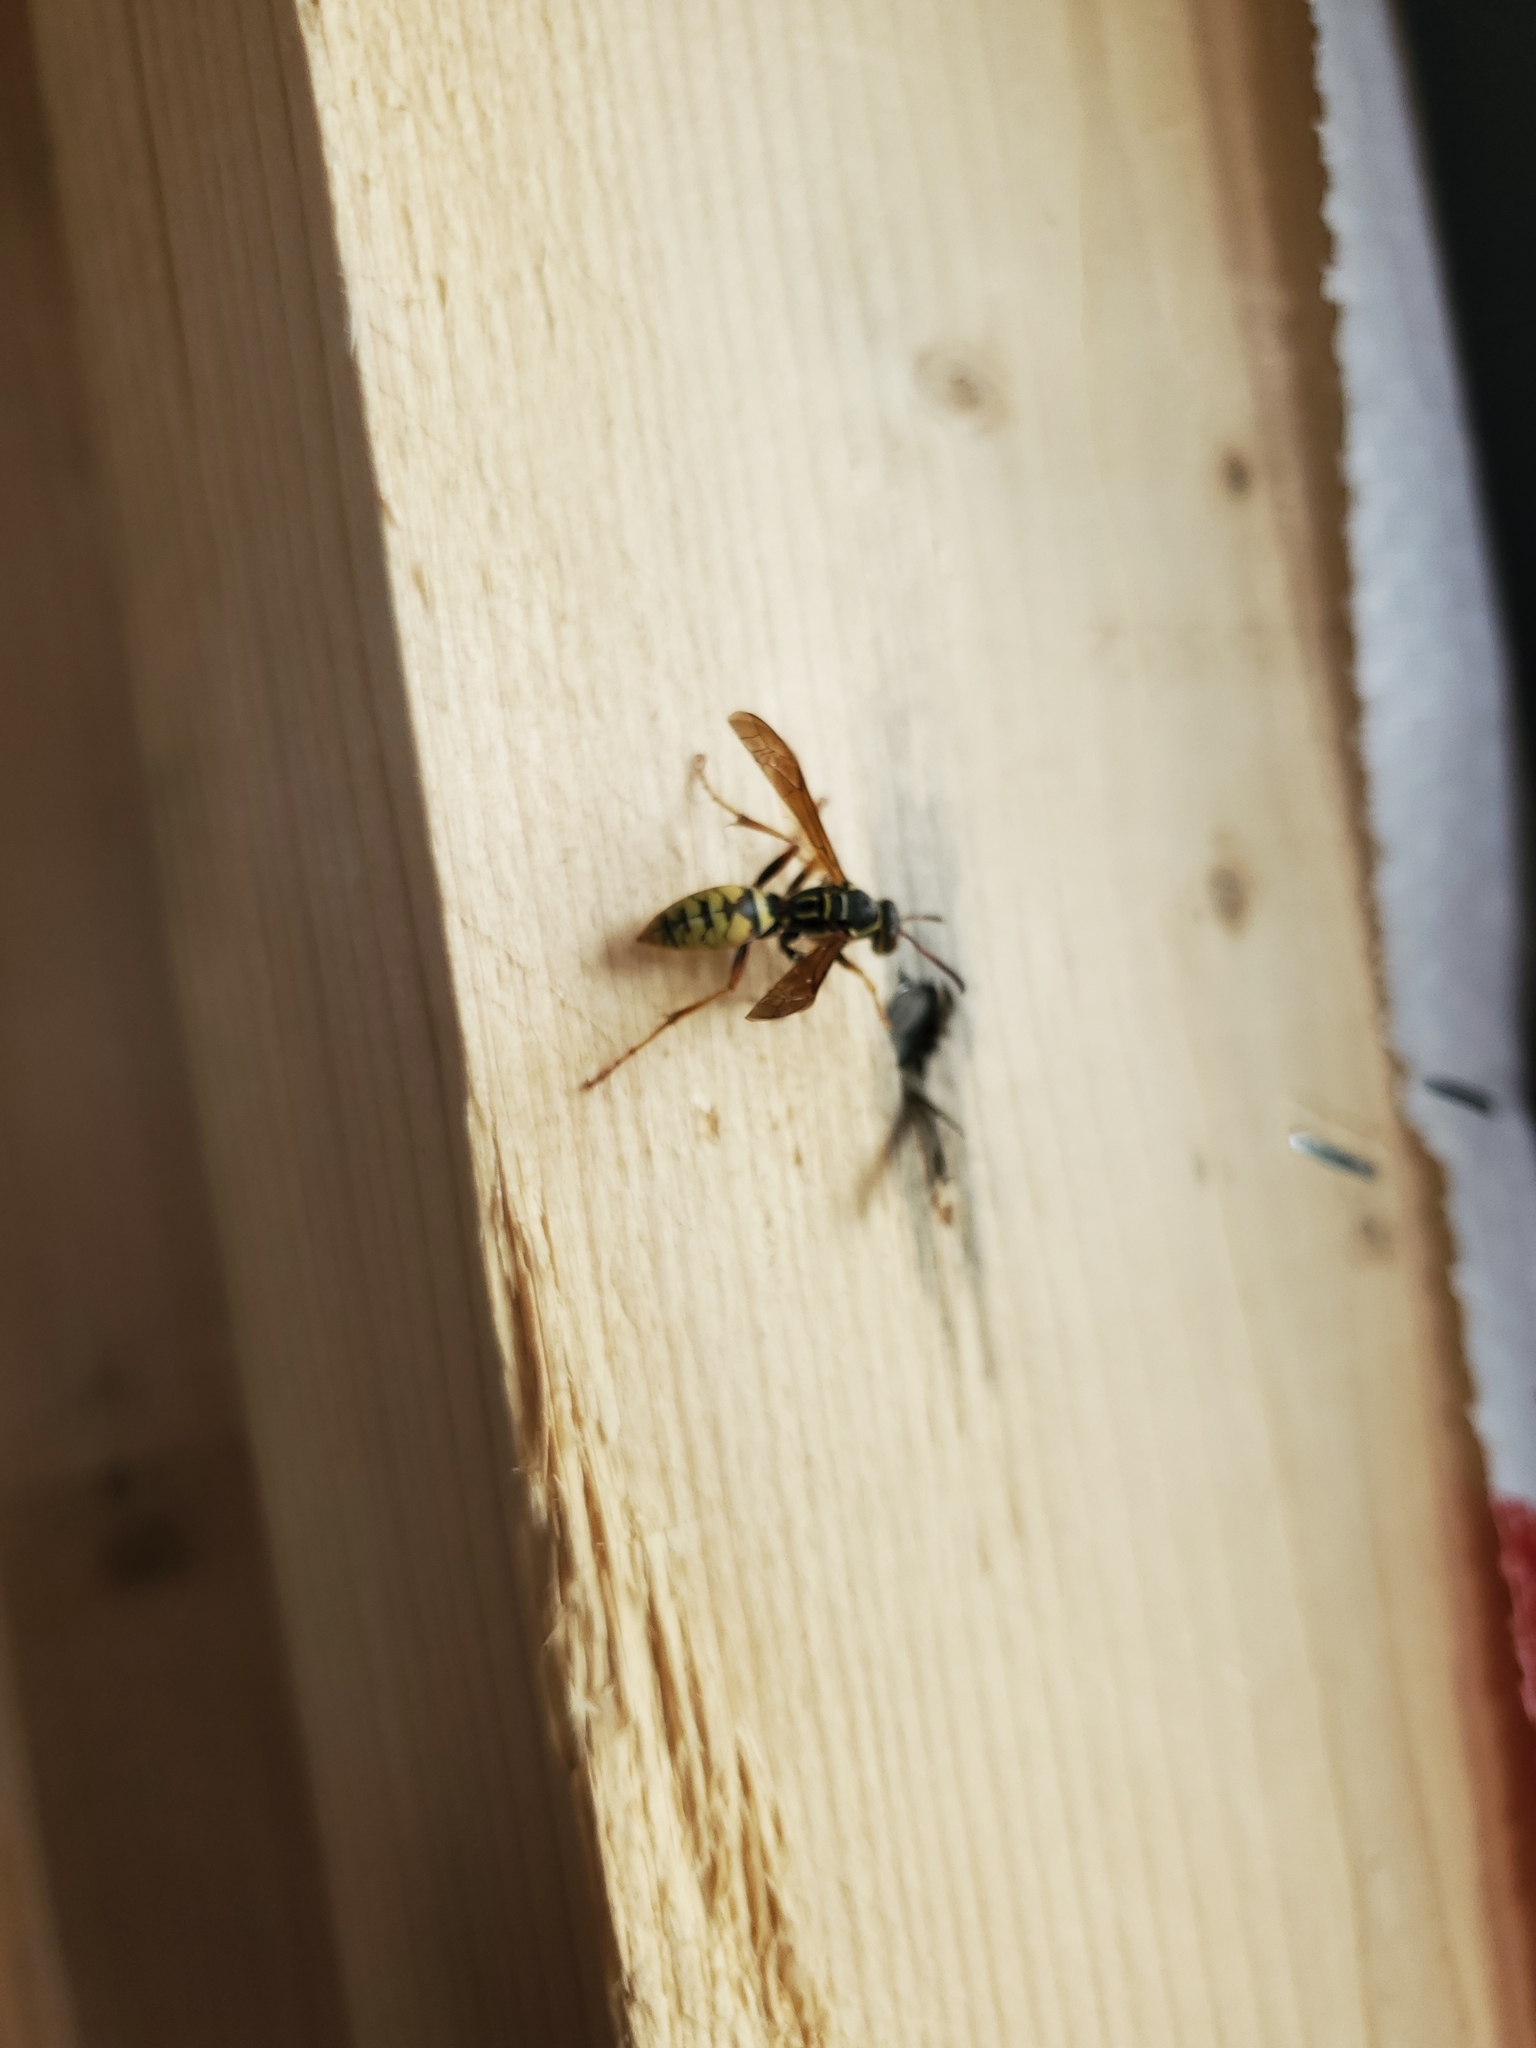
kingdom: Animalia
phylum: Arthropoda
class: Insecta
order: Hymenoptera
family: Eumenidae
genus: Polistes
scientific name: Polistes aurifer
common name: Paper wasp
